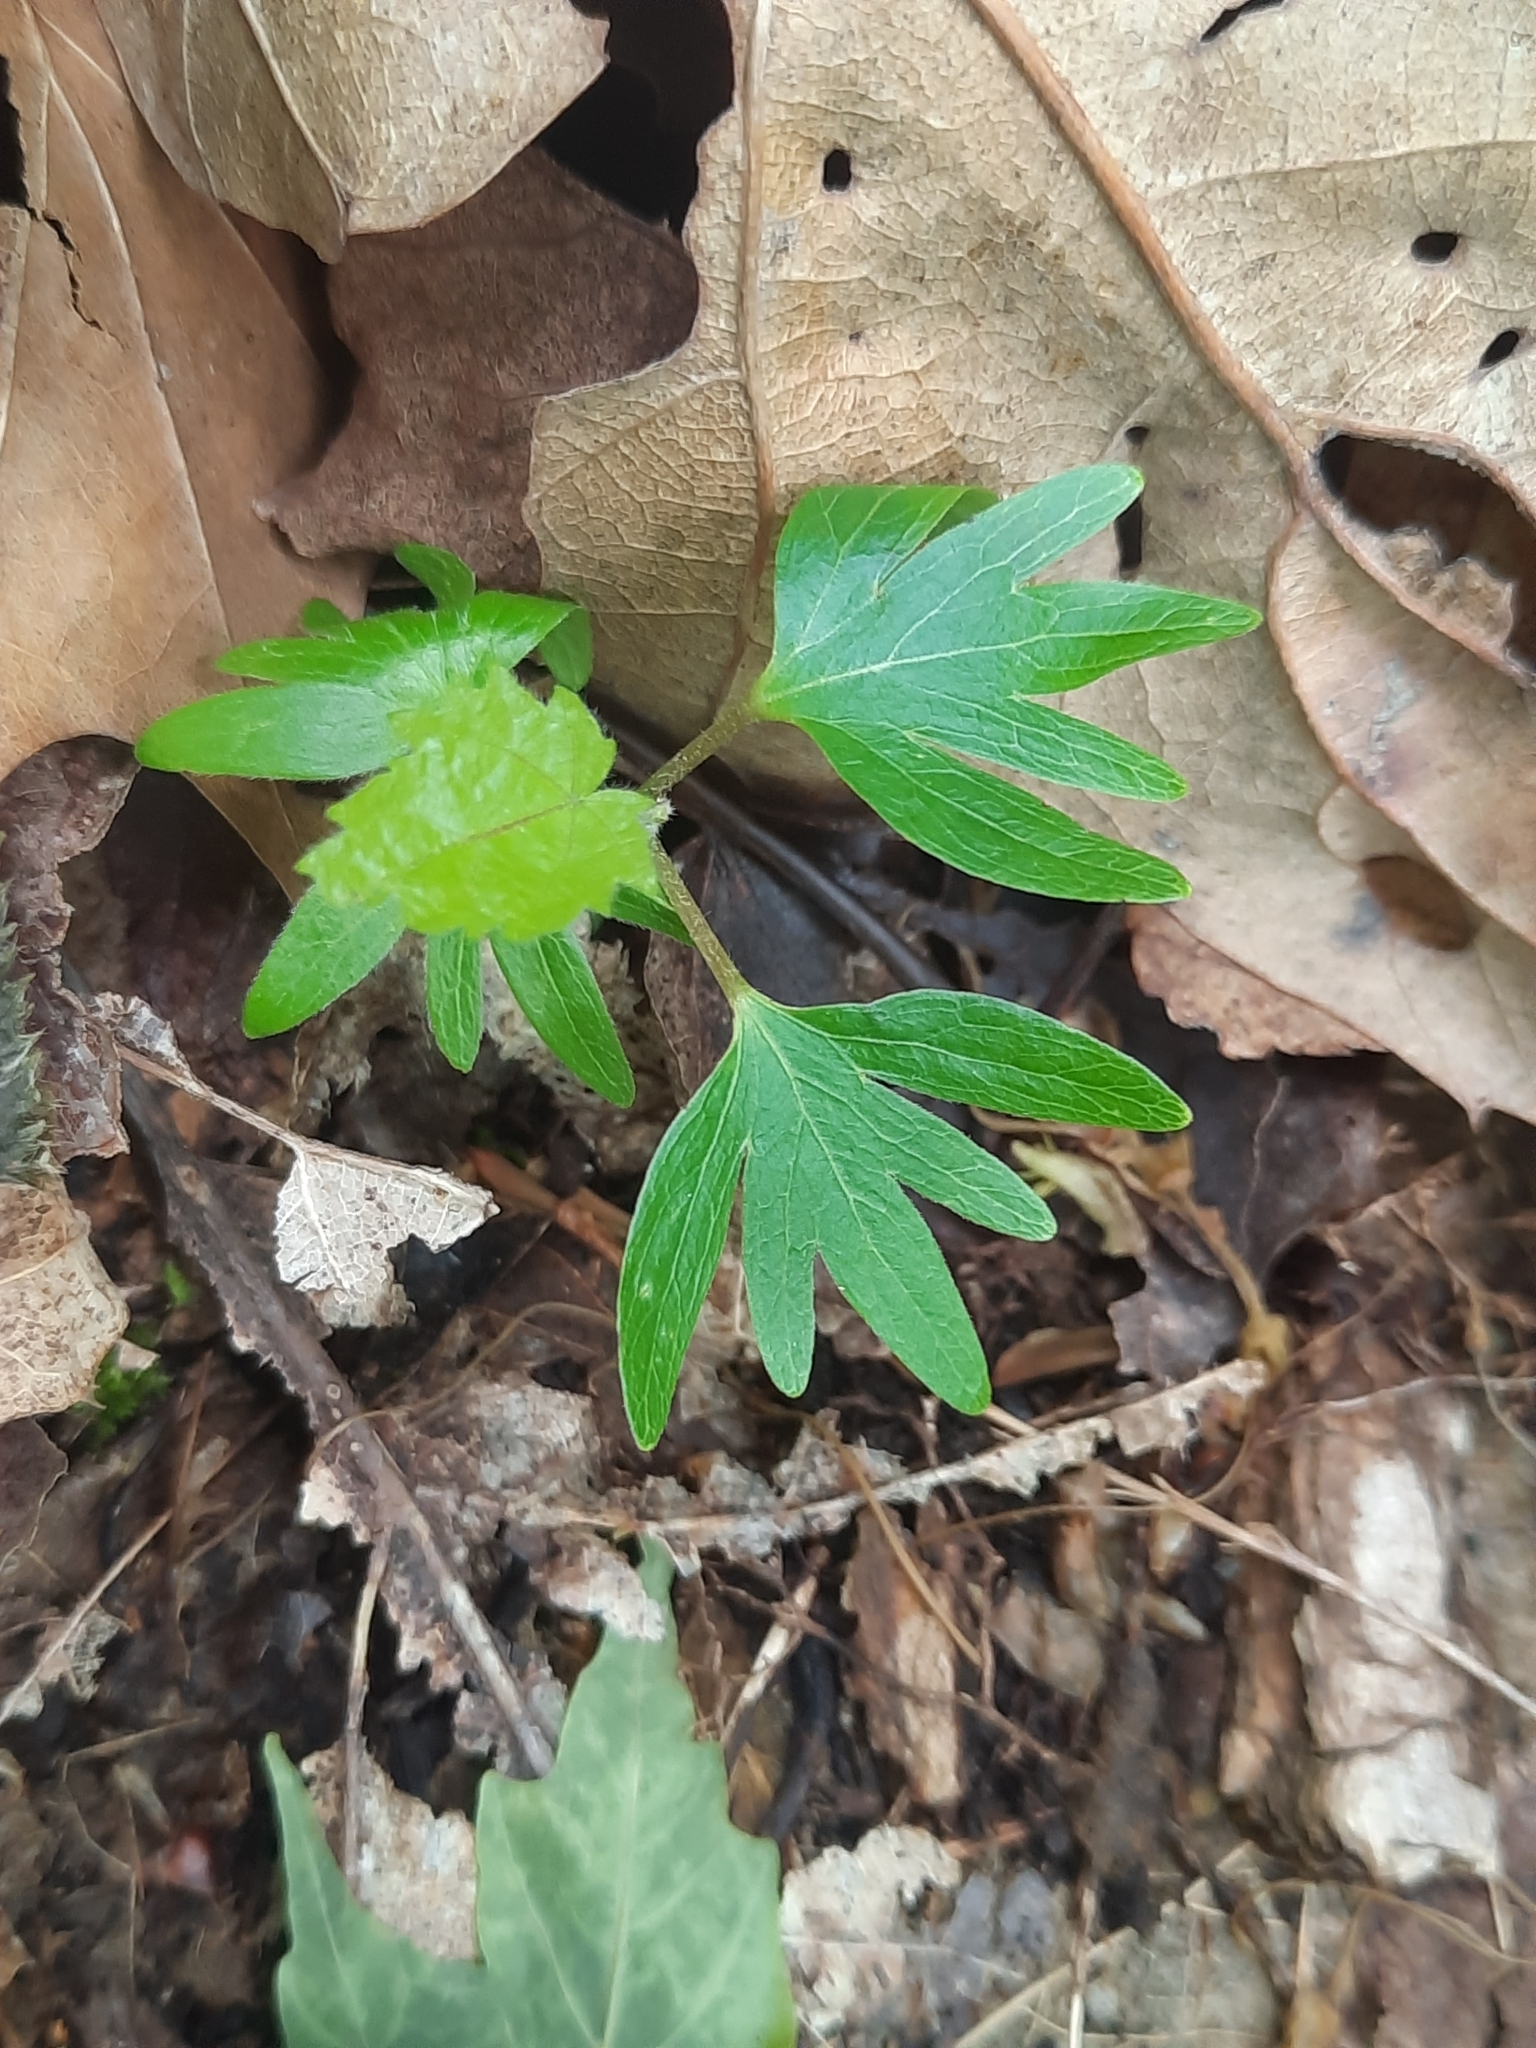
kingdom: Plantae
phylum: Tracheophyta
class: Magnoliopsida
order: Malvales
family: Malvaceae
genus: Tilia
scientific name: Tilia americana
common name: Basswood
